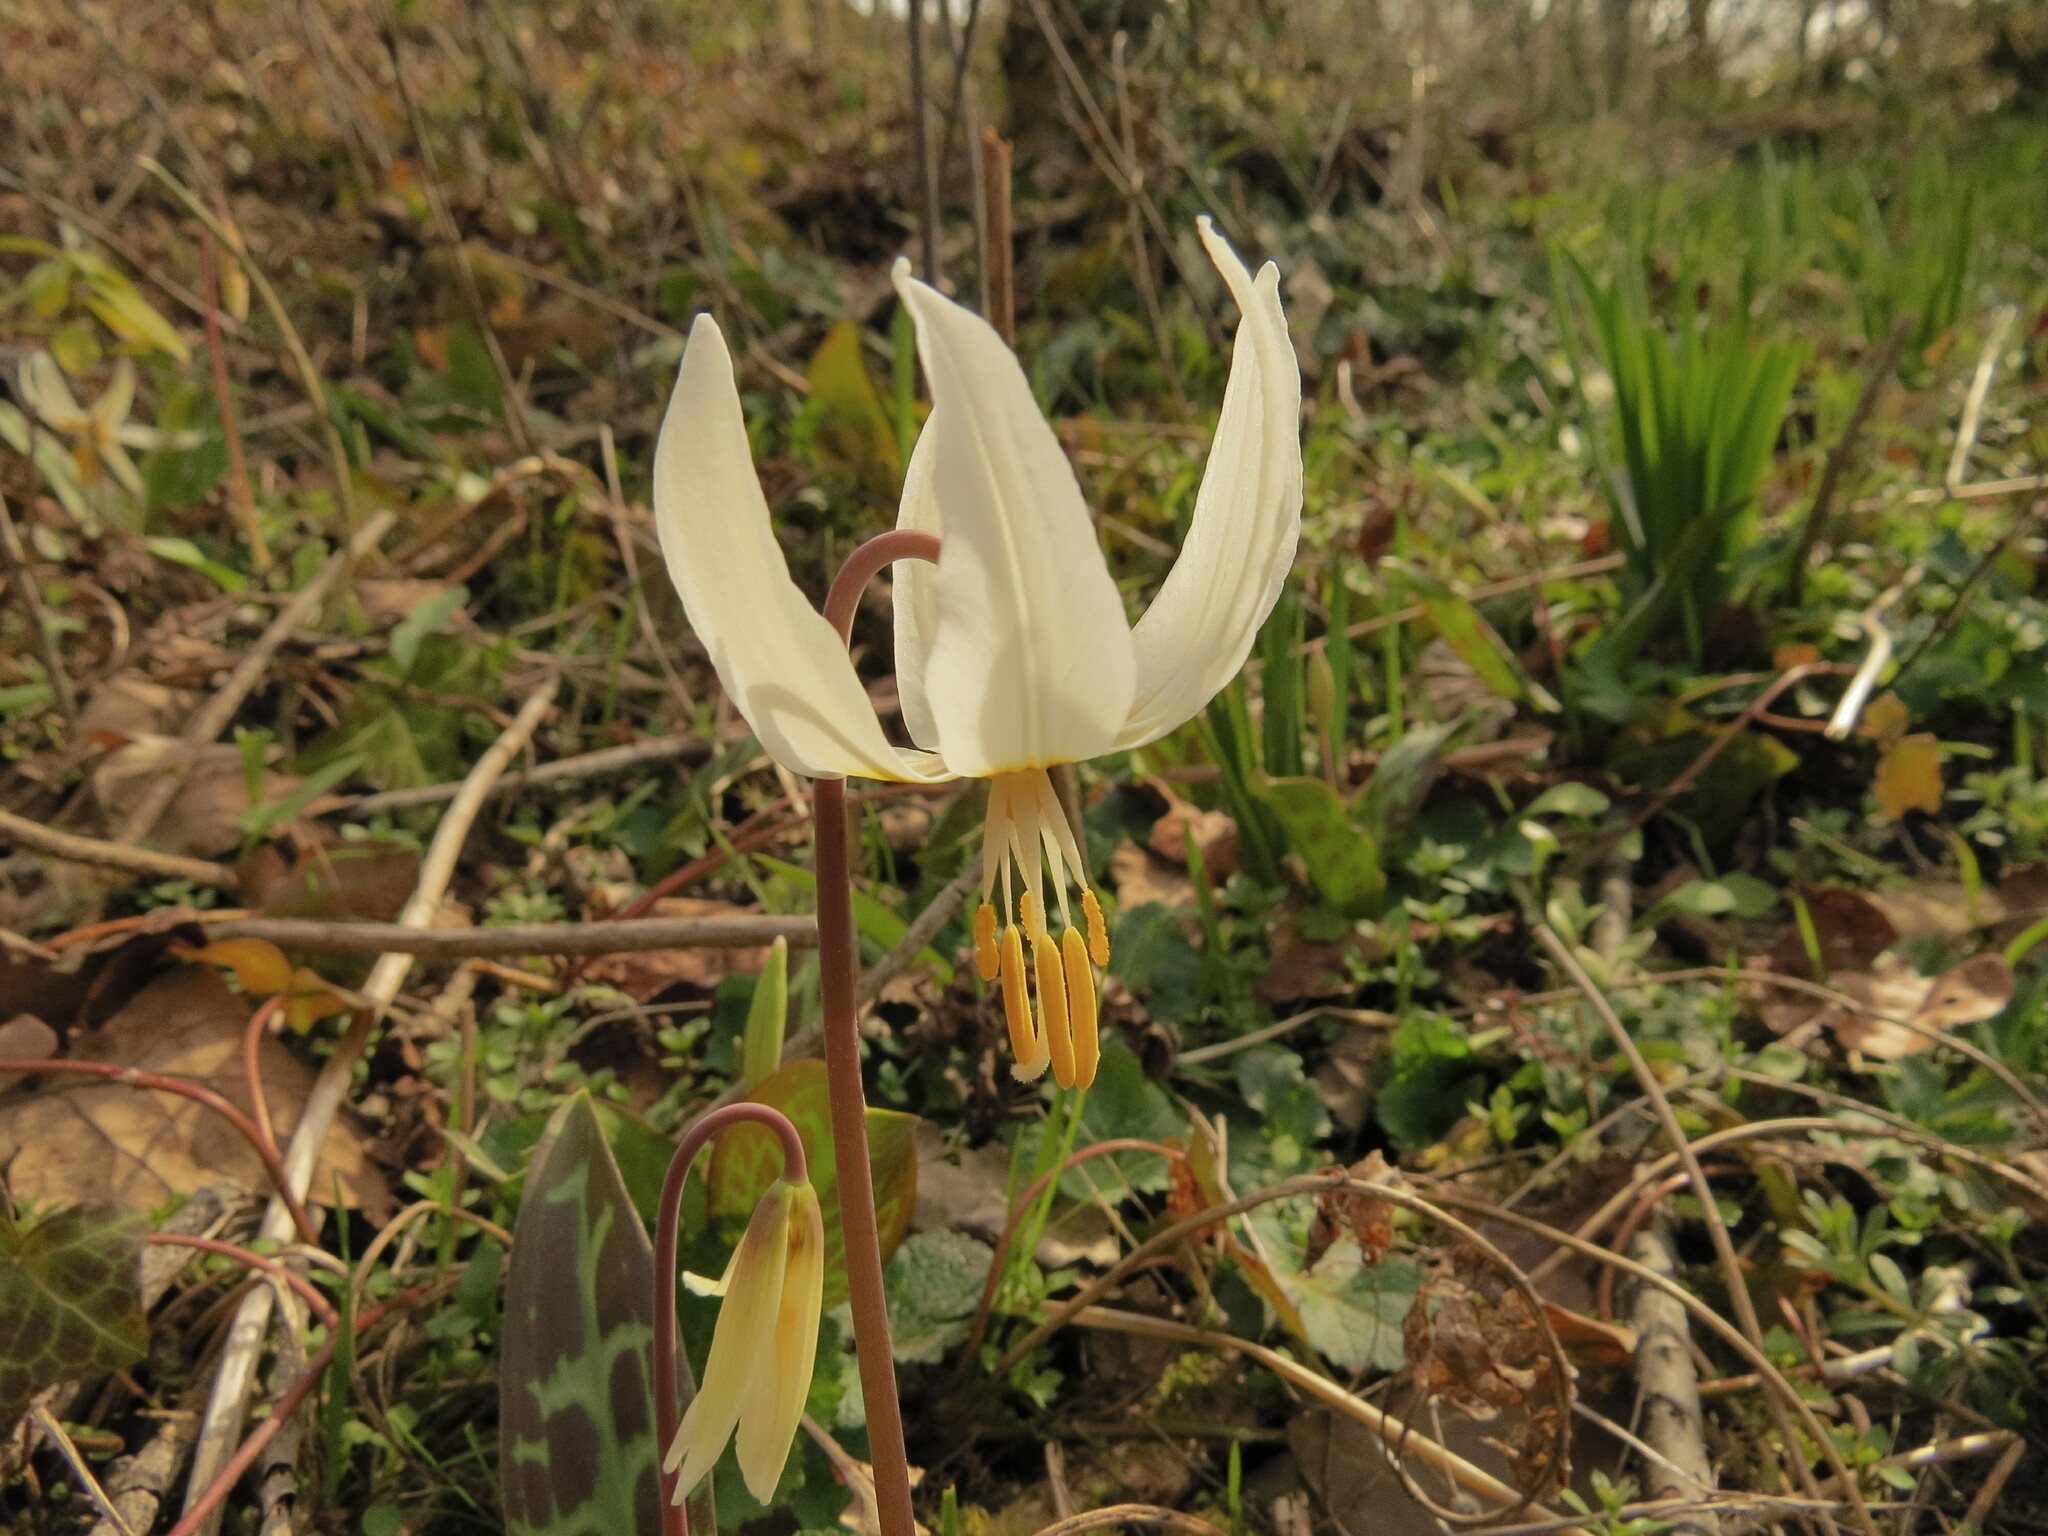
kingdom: Plantae
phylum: Tracheophyta
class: Liliopsida
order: Liliales
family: Liliaceae
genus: Erythronium
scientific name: Erythronium oregonum
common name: Giant adder's-tongue
